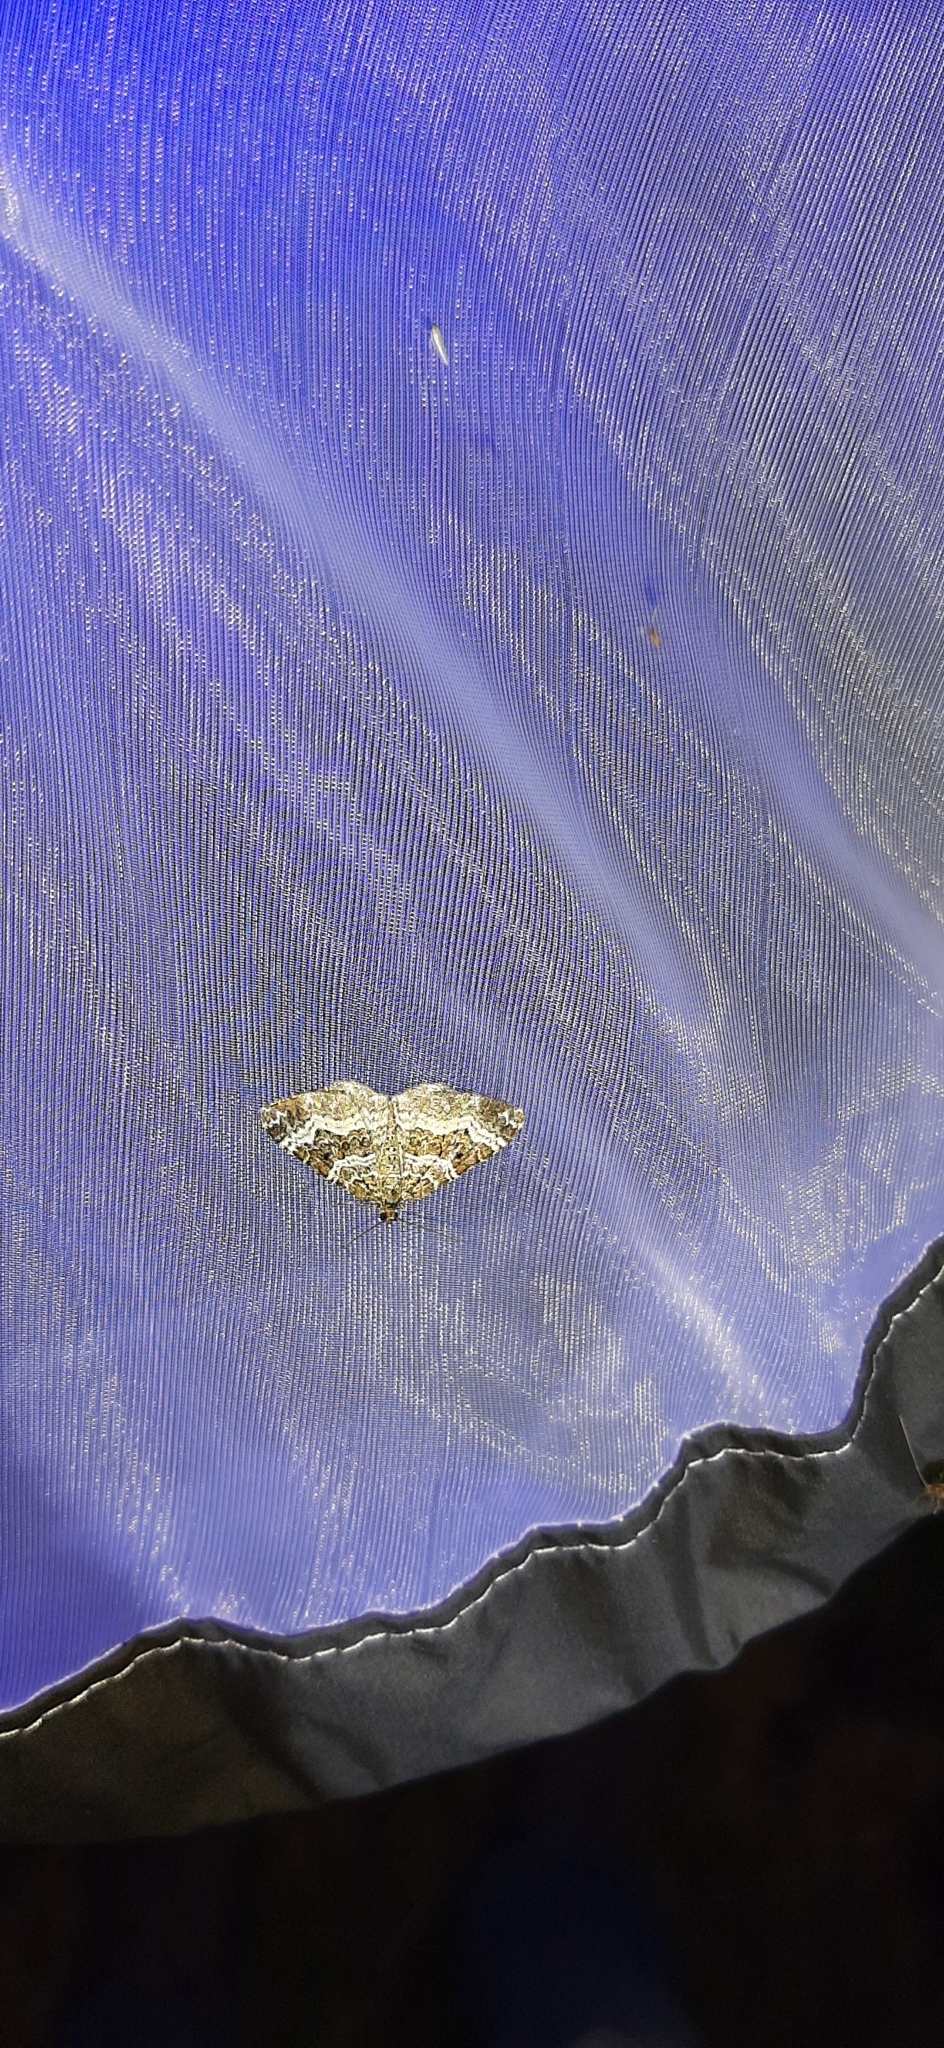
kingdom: Animalia
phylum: Arthropoda
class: Insecta
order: Lepidoptera
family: Geometridae
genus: Epirrhoe
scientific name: Epirrhoe alternata
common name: Common carpet
